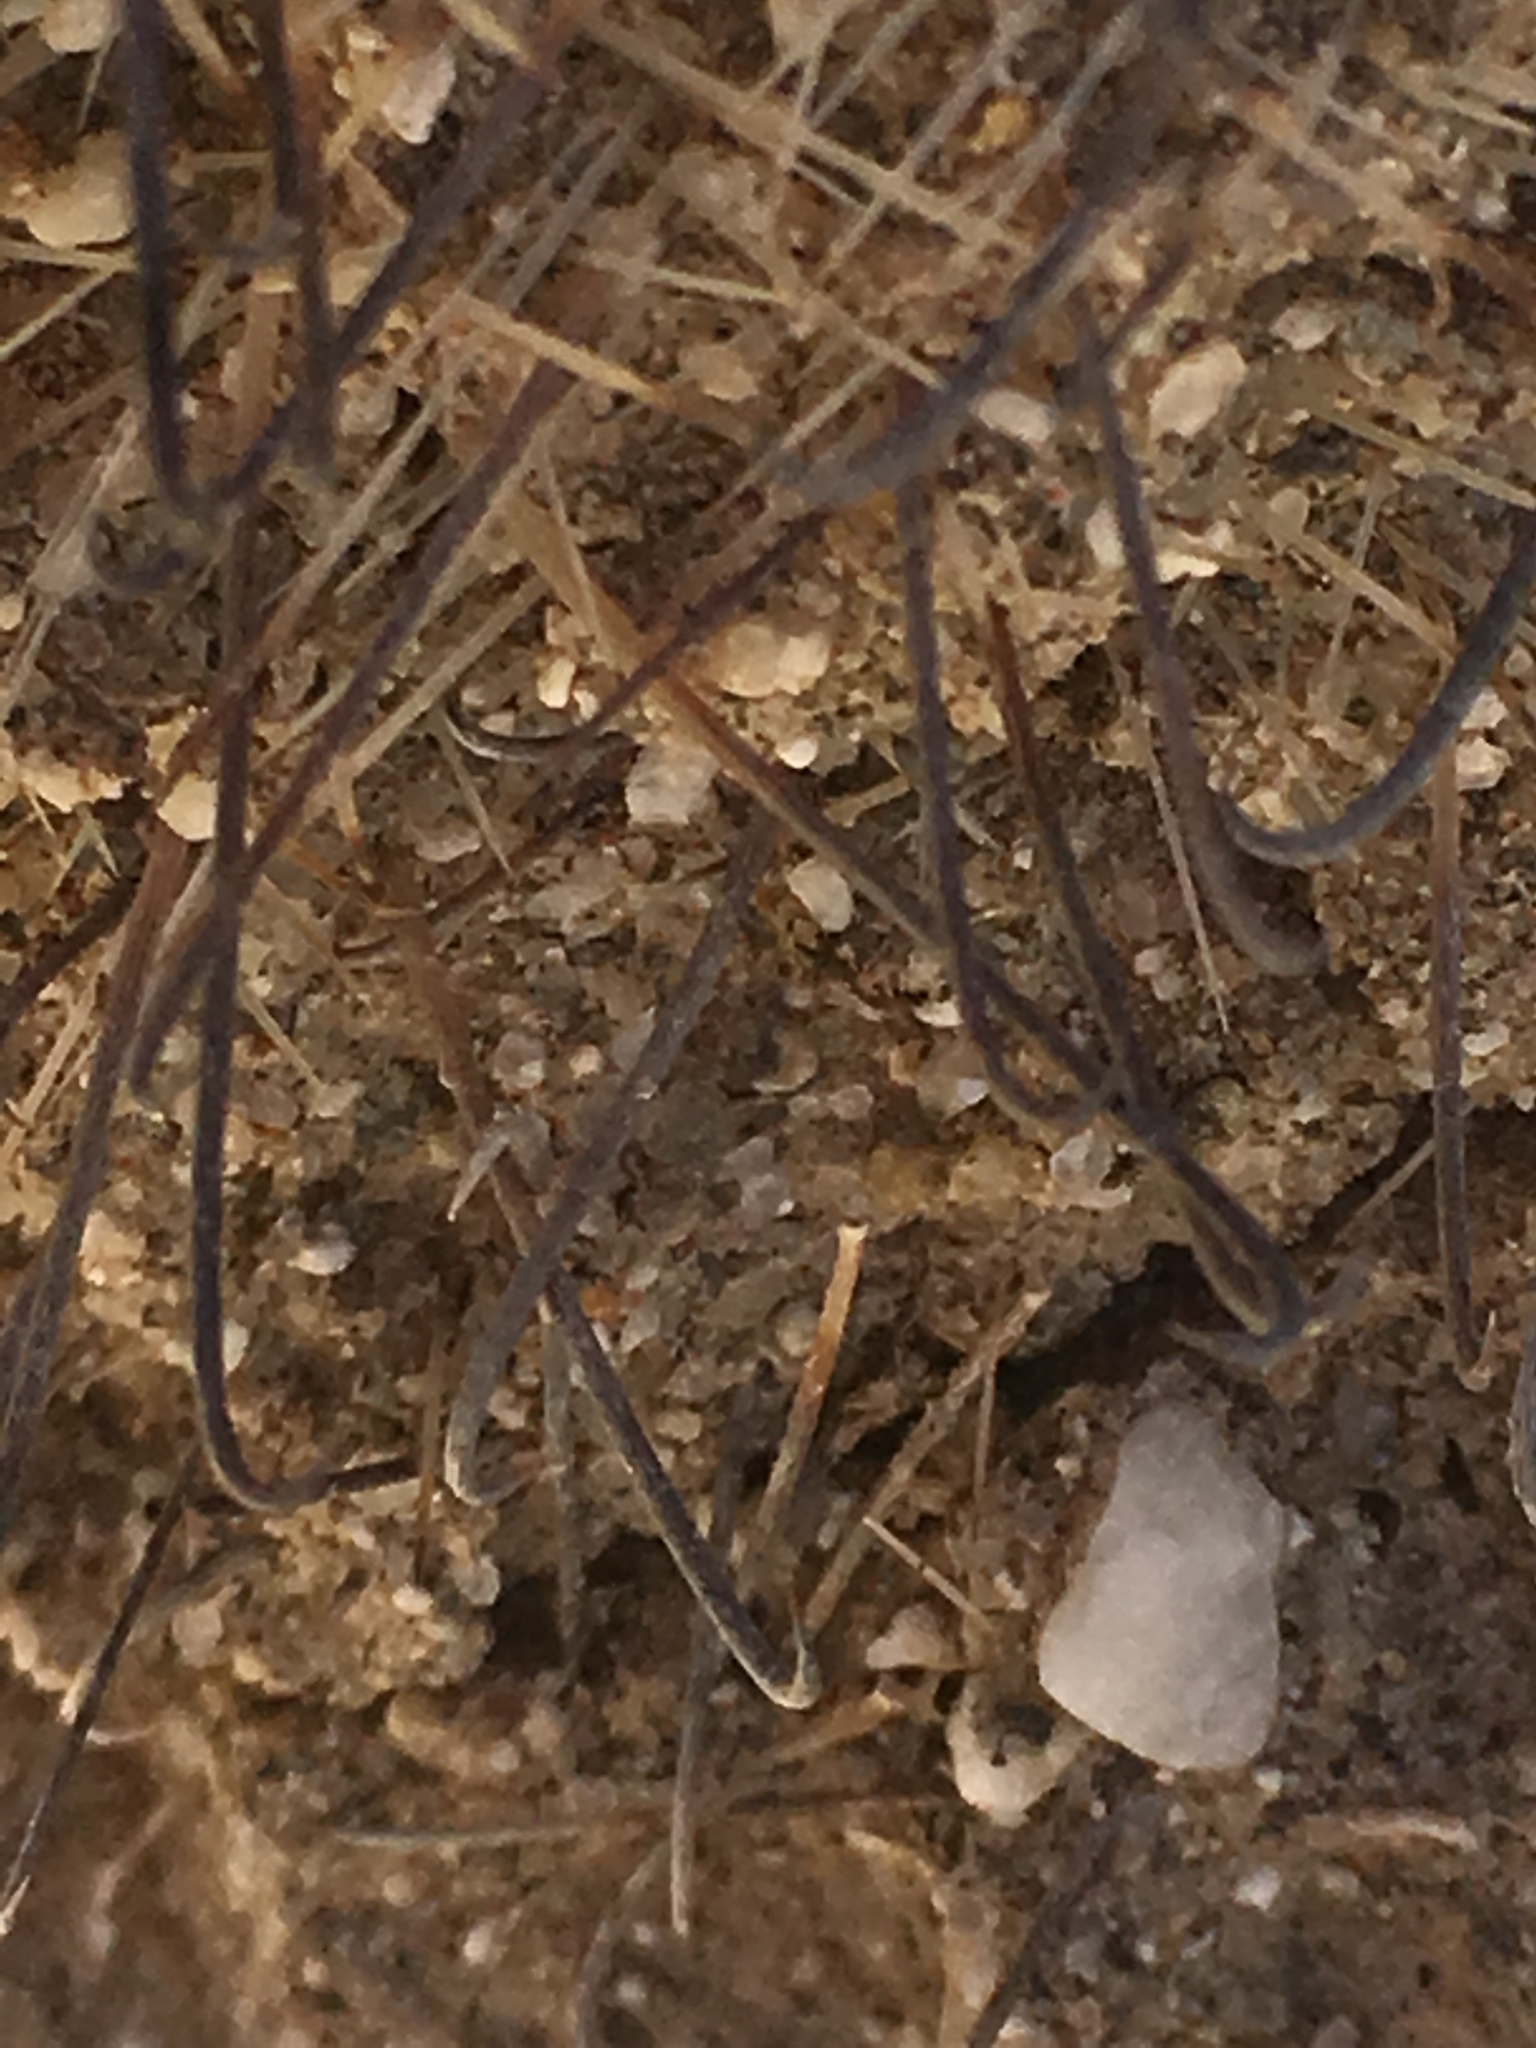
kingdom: Plantae
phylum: Tracheophyta
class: Magnoliopsida
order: Caryophyllales
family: Cactaceae
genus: Cochemiea
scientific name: Cochemiea tetrancistra
